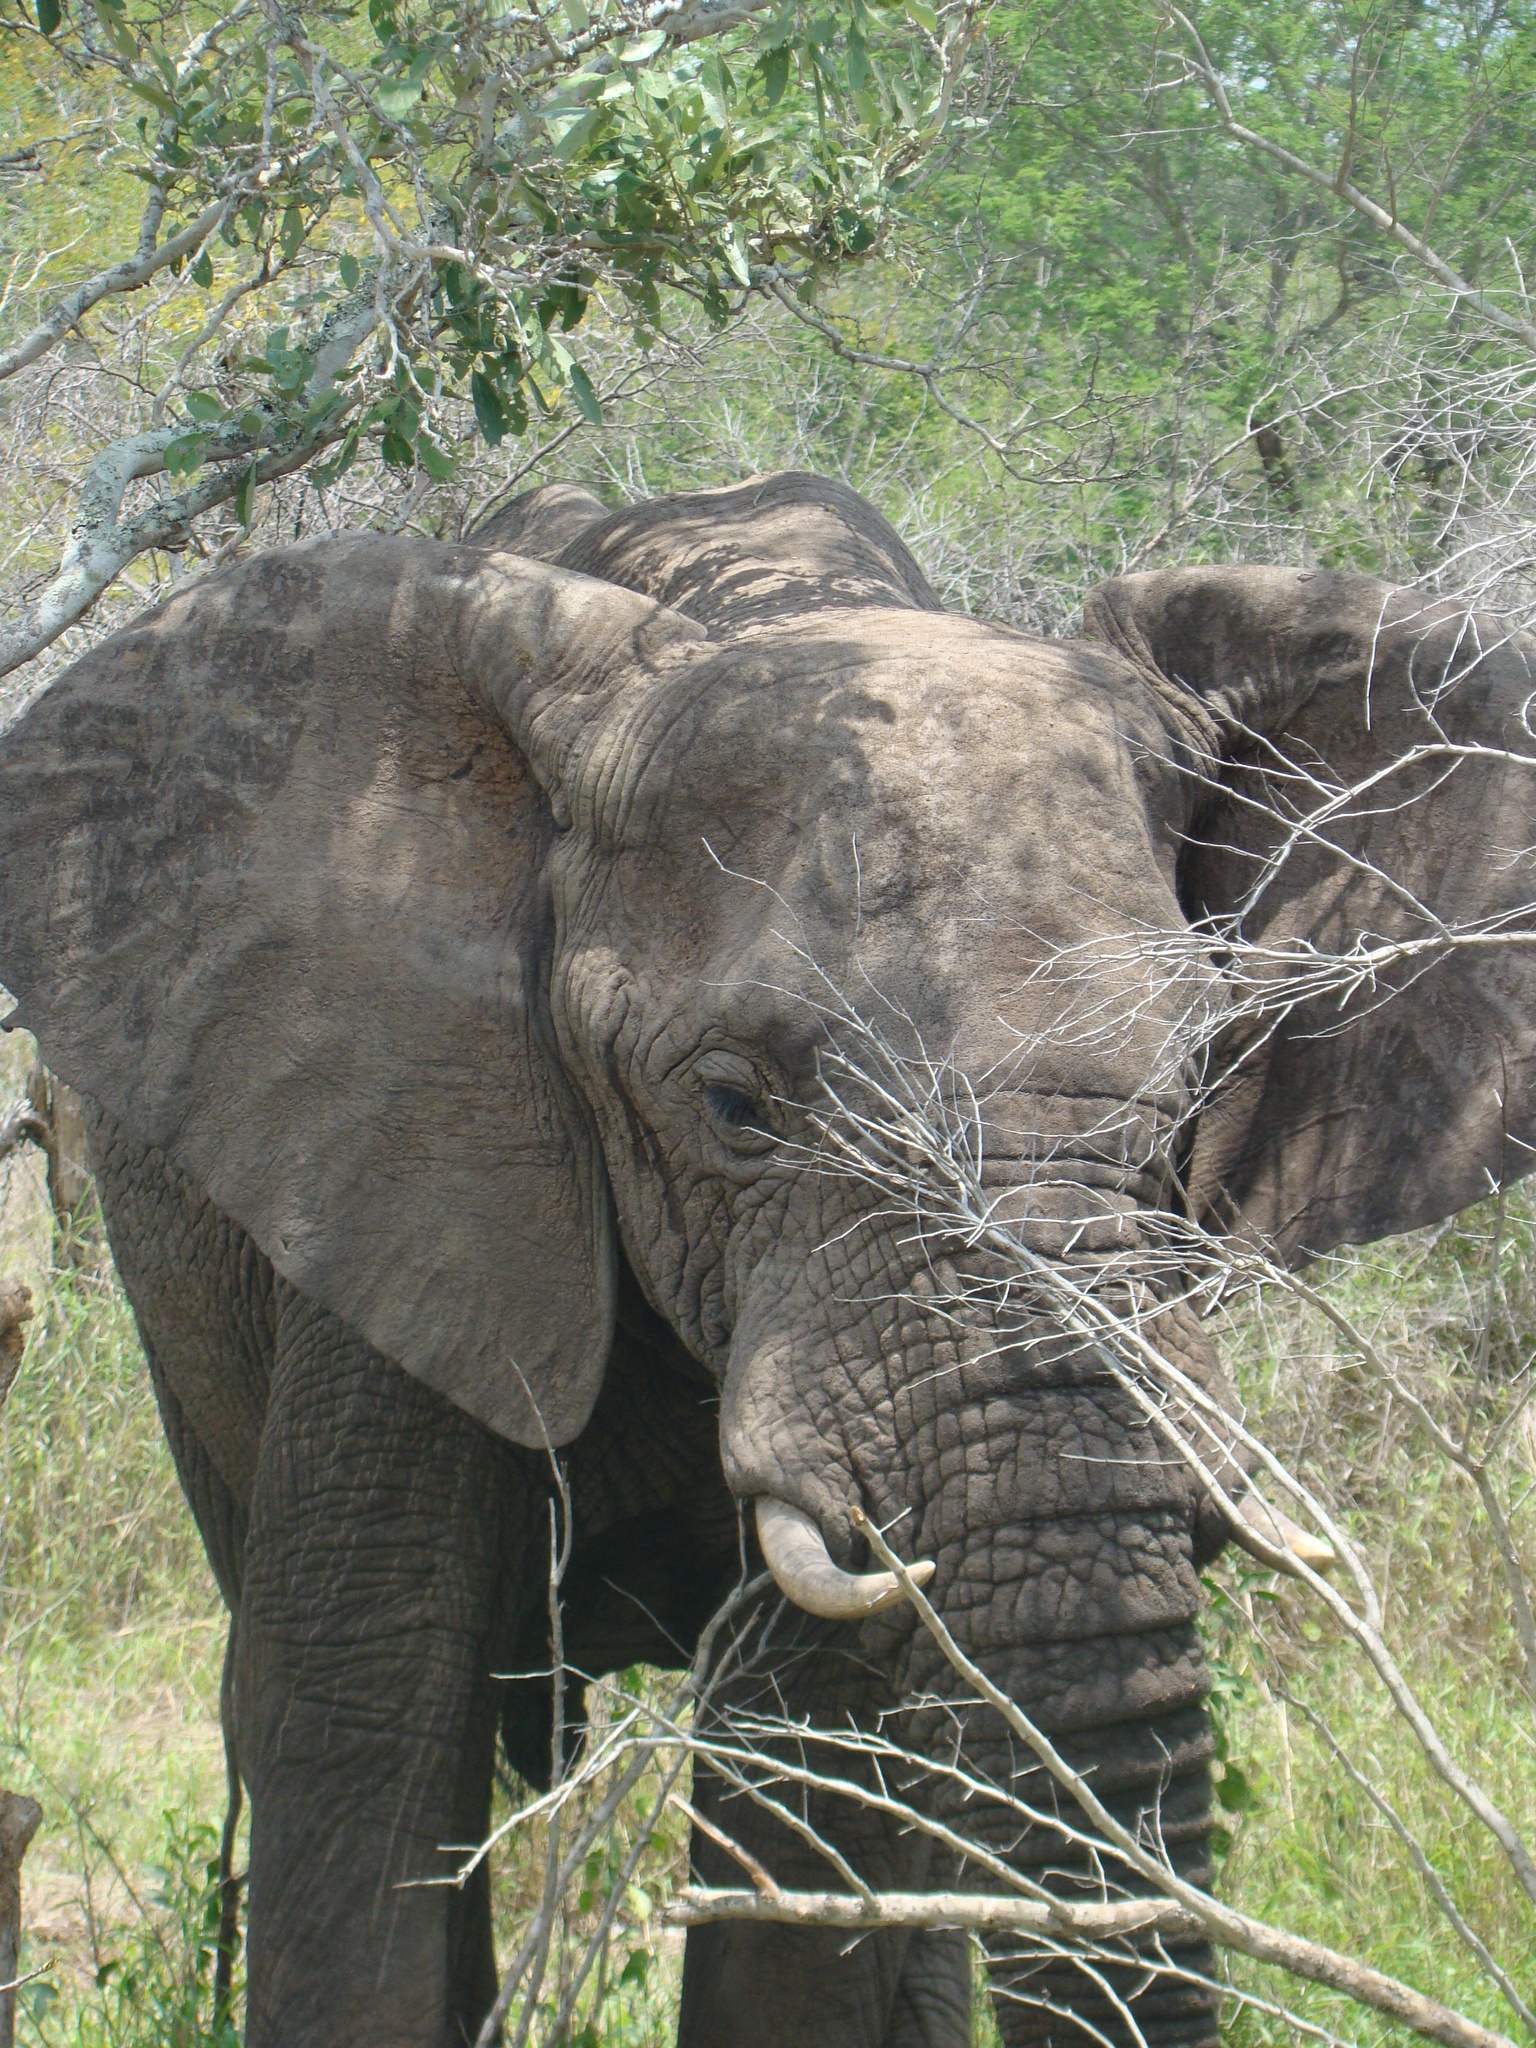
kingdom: Animalia
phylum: Chordata
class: Mammalia
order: Proboscidea
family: Elephantidae
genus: Loxodonta
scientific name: Loxodonta africana
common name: African elephant
